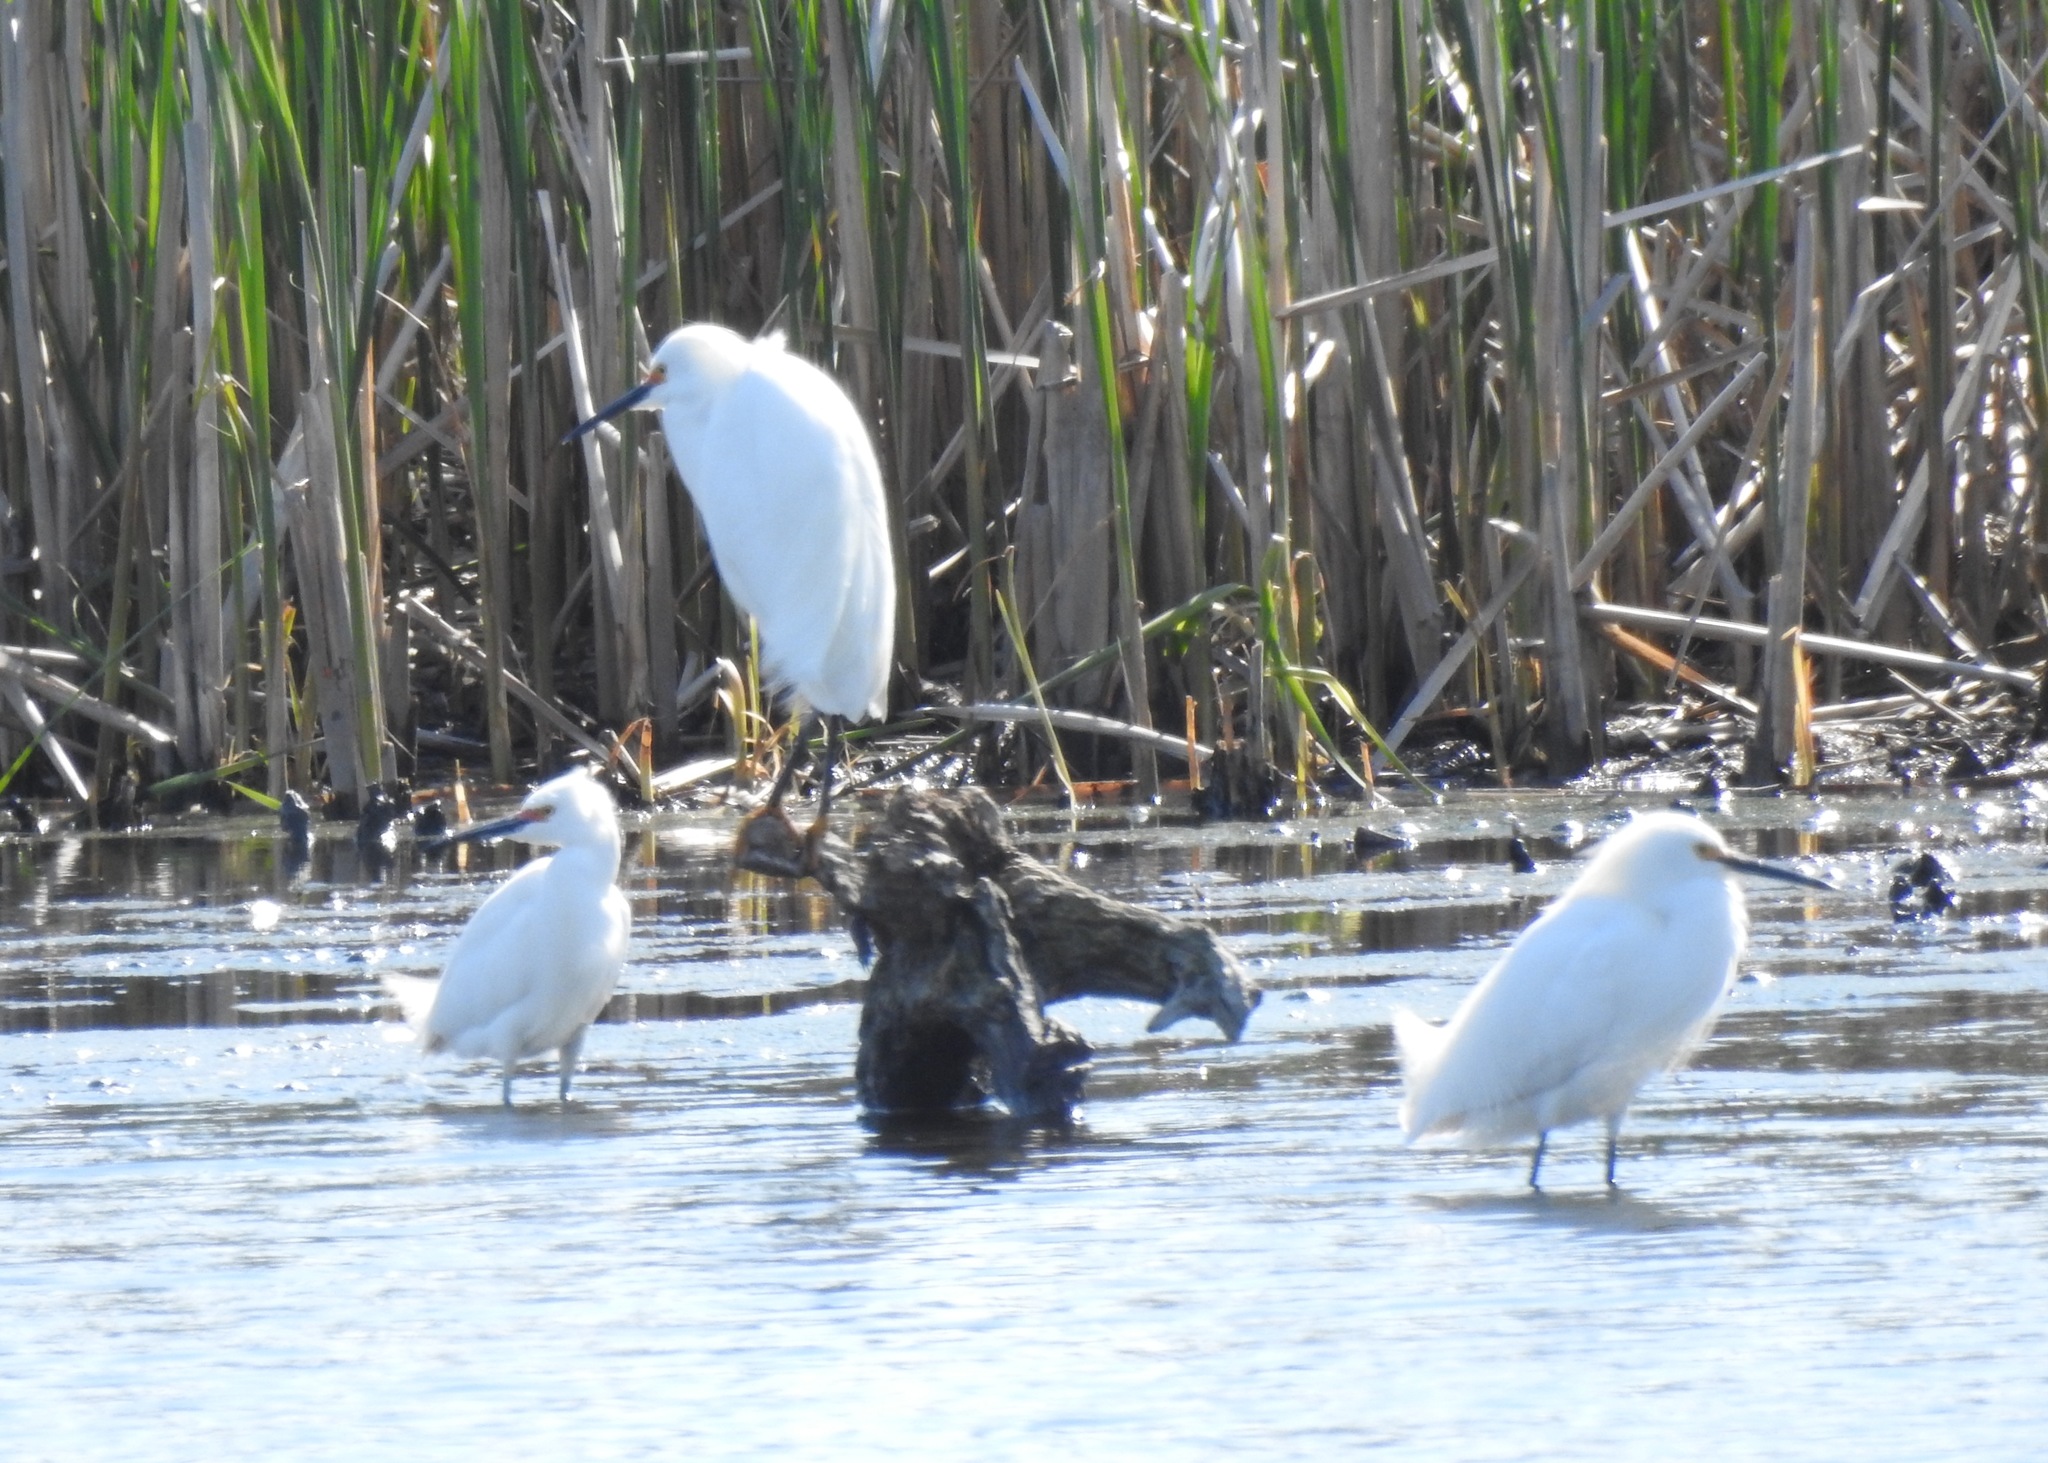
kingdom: Animalia
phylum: Chordata
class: Aves
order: Pelecaniformes
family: Ardeidae
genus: Egretta
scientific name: Egretta thula
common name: Snowy egret
